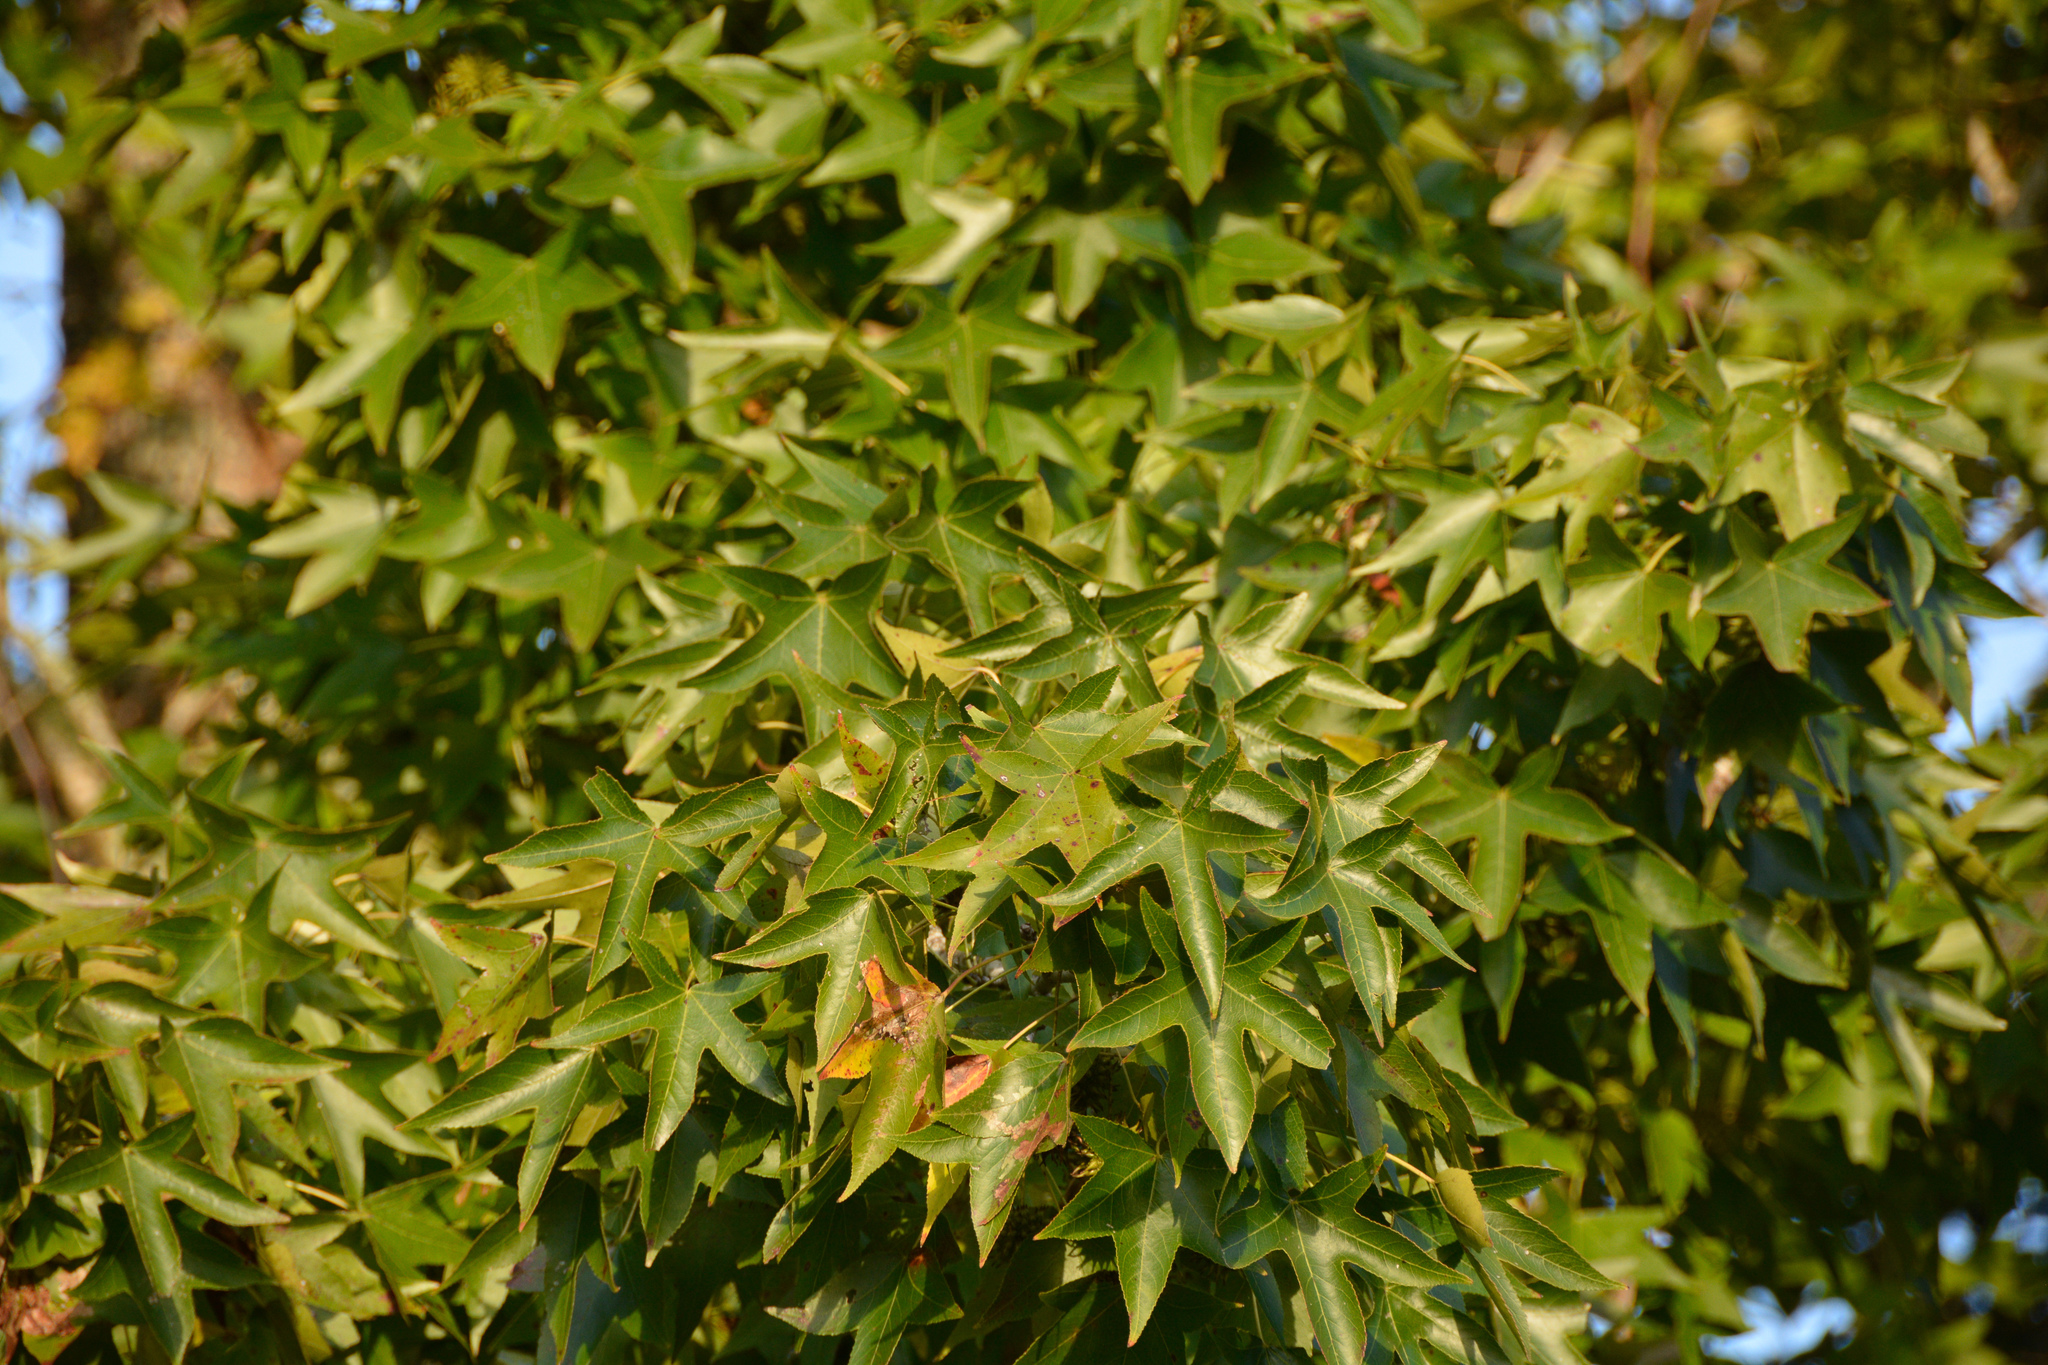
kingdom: Plantae
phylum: Tracheophyta
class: Magnoliopsida
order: Saxifragales
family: Altingiaceae
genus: Liquidambar
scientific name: Liquidambar styraciflua
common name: Sweet gum
